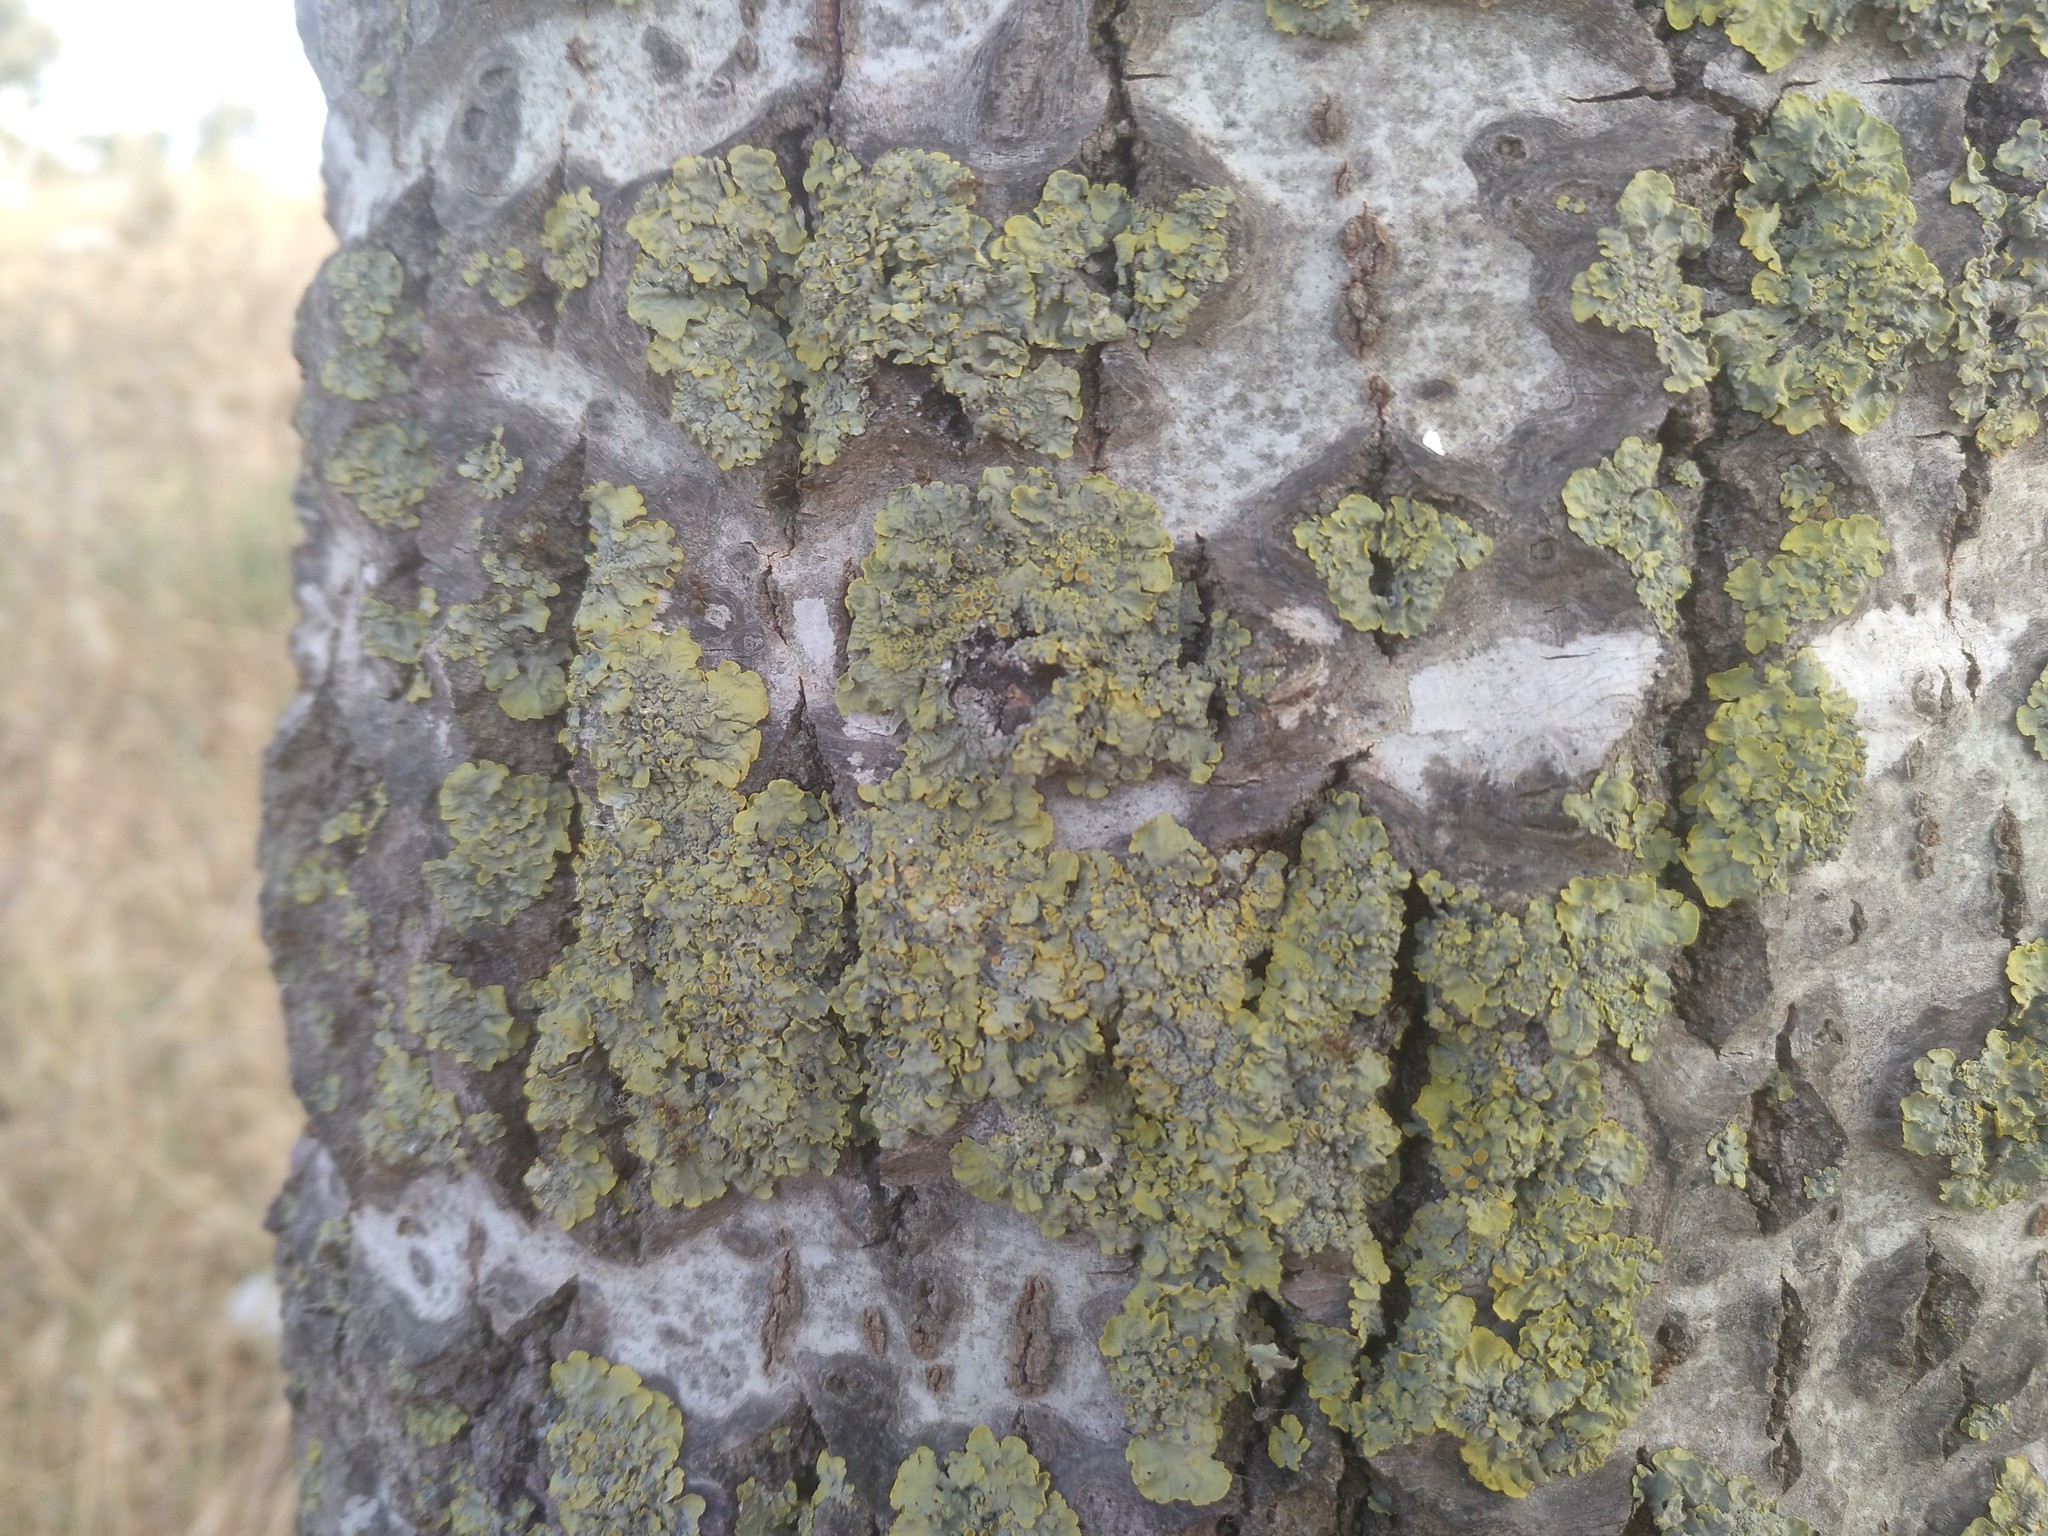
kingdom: Fungi
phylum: Ascomycota
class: Lecanoromycetes
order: Teloschistales
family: Teloschistaceae
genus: Xanthoria
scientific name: Xanthoria parietina
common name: Common orange lichen
